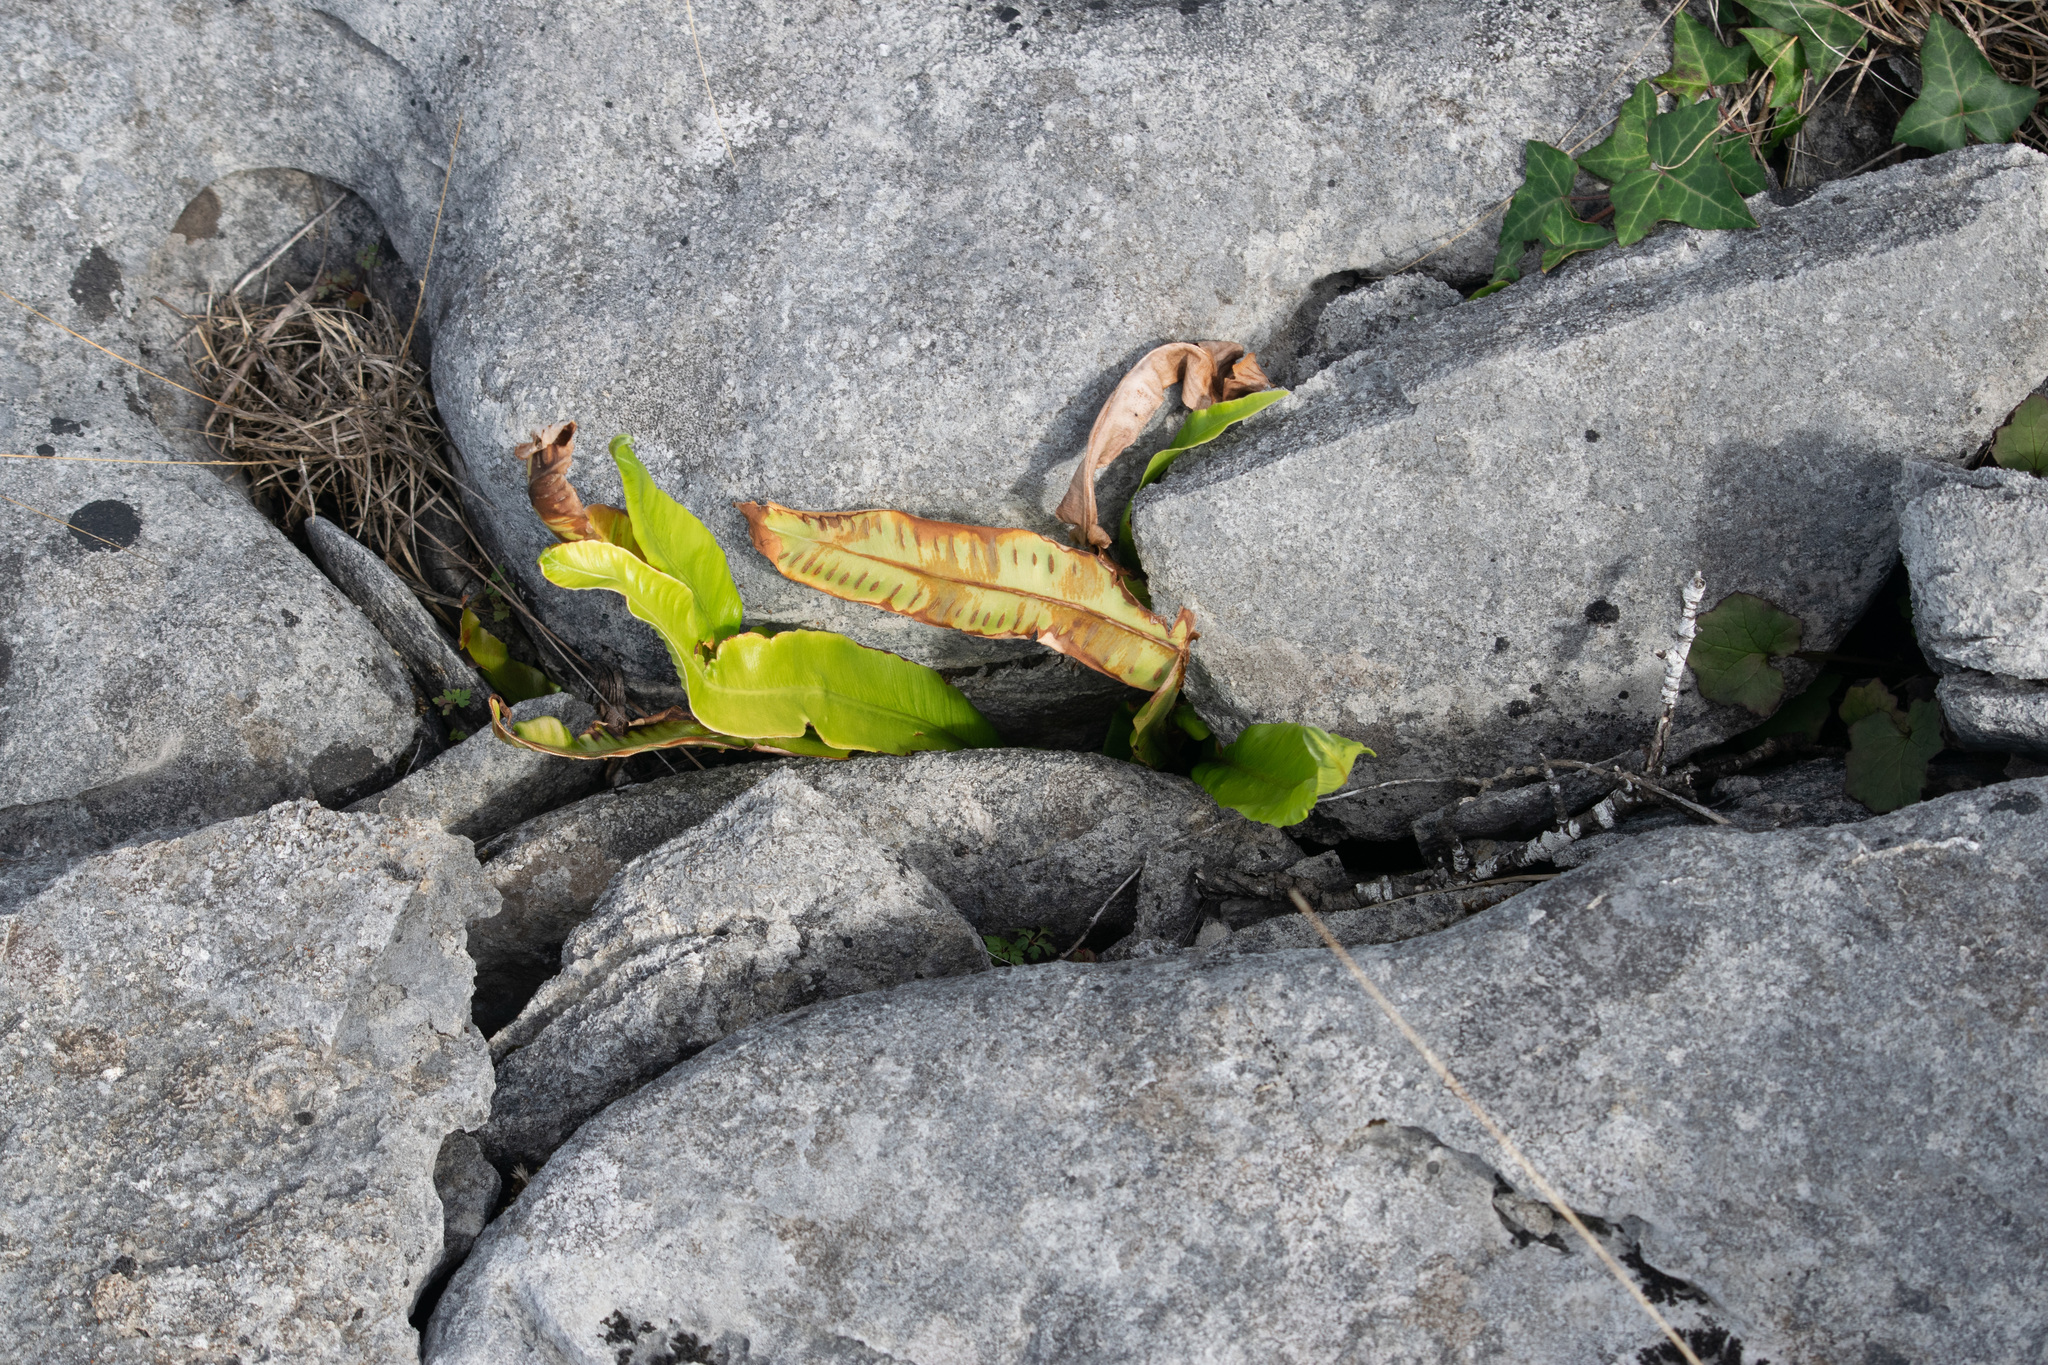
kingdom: Plantae
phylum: Tracheophyta
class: Polypodiopsida
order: Polypodiales
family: Aspleniaceae
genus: Asplenium
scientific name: Asplenium scolopendrium
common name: Hart's-tongue fern
